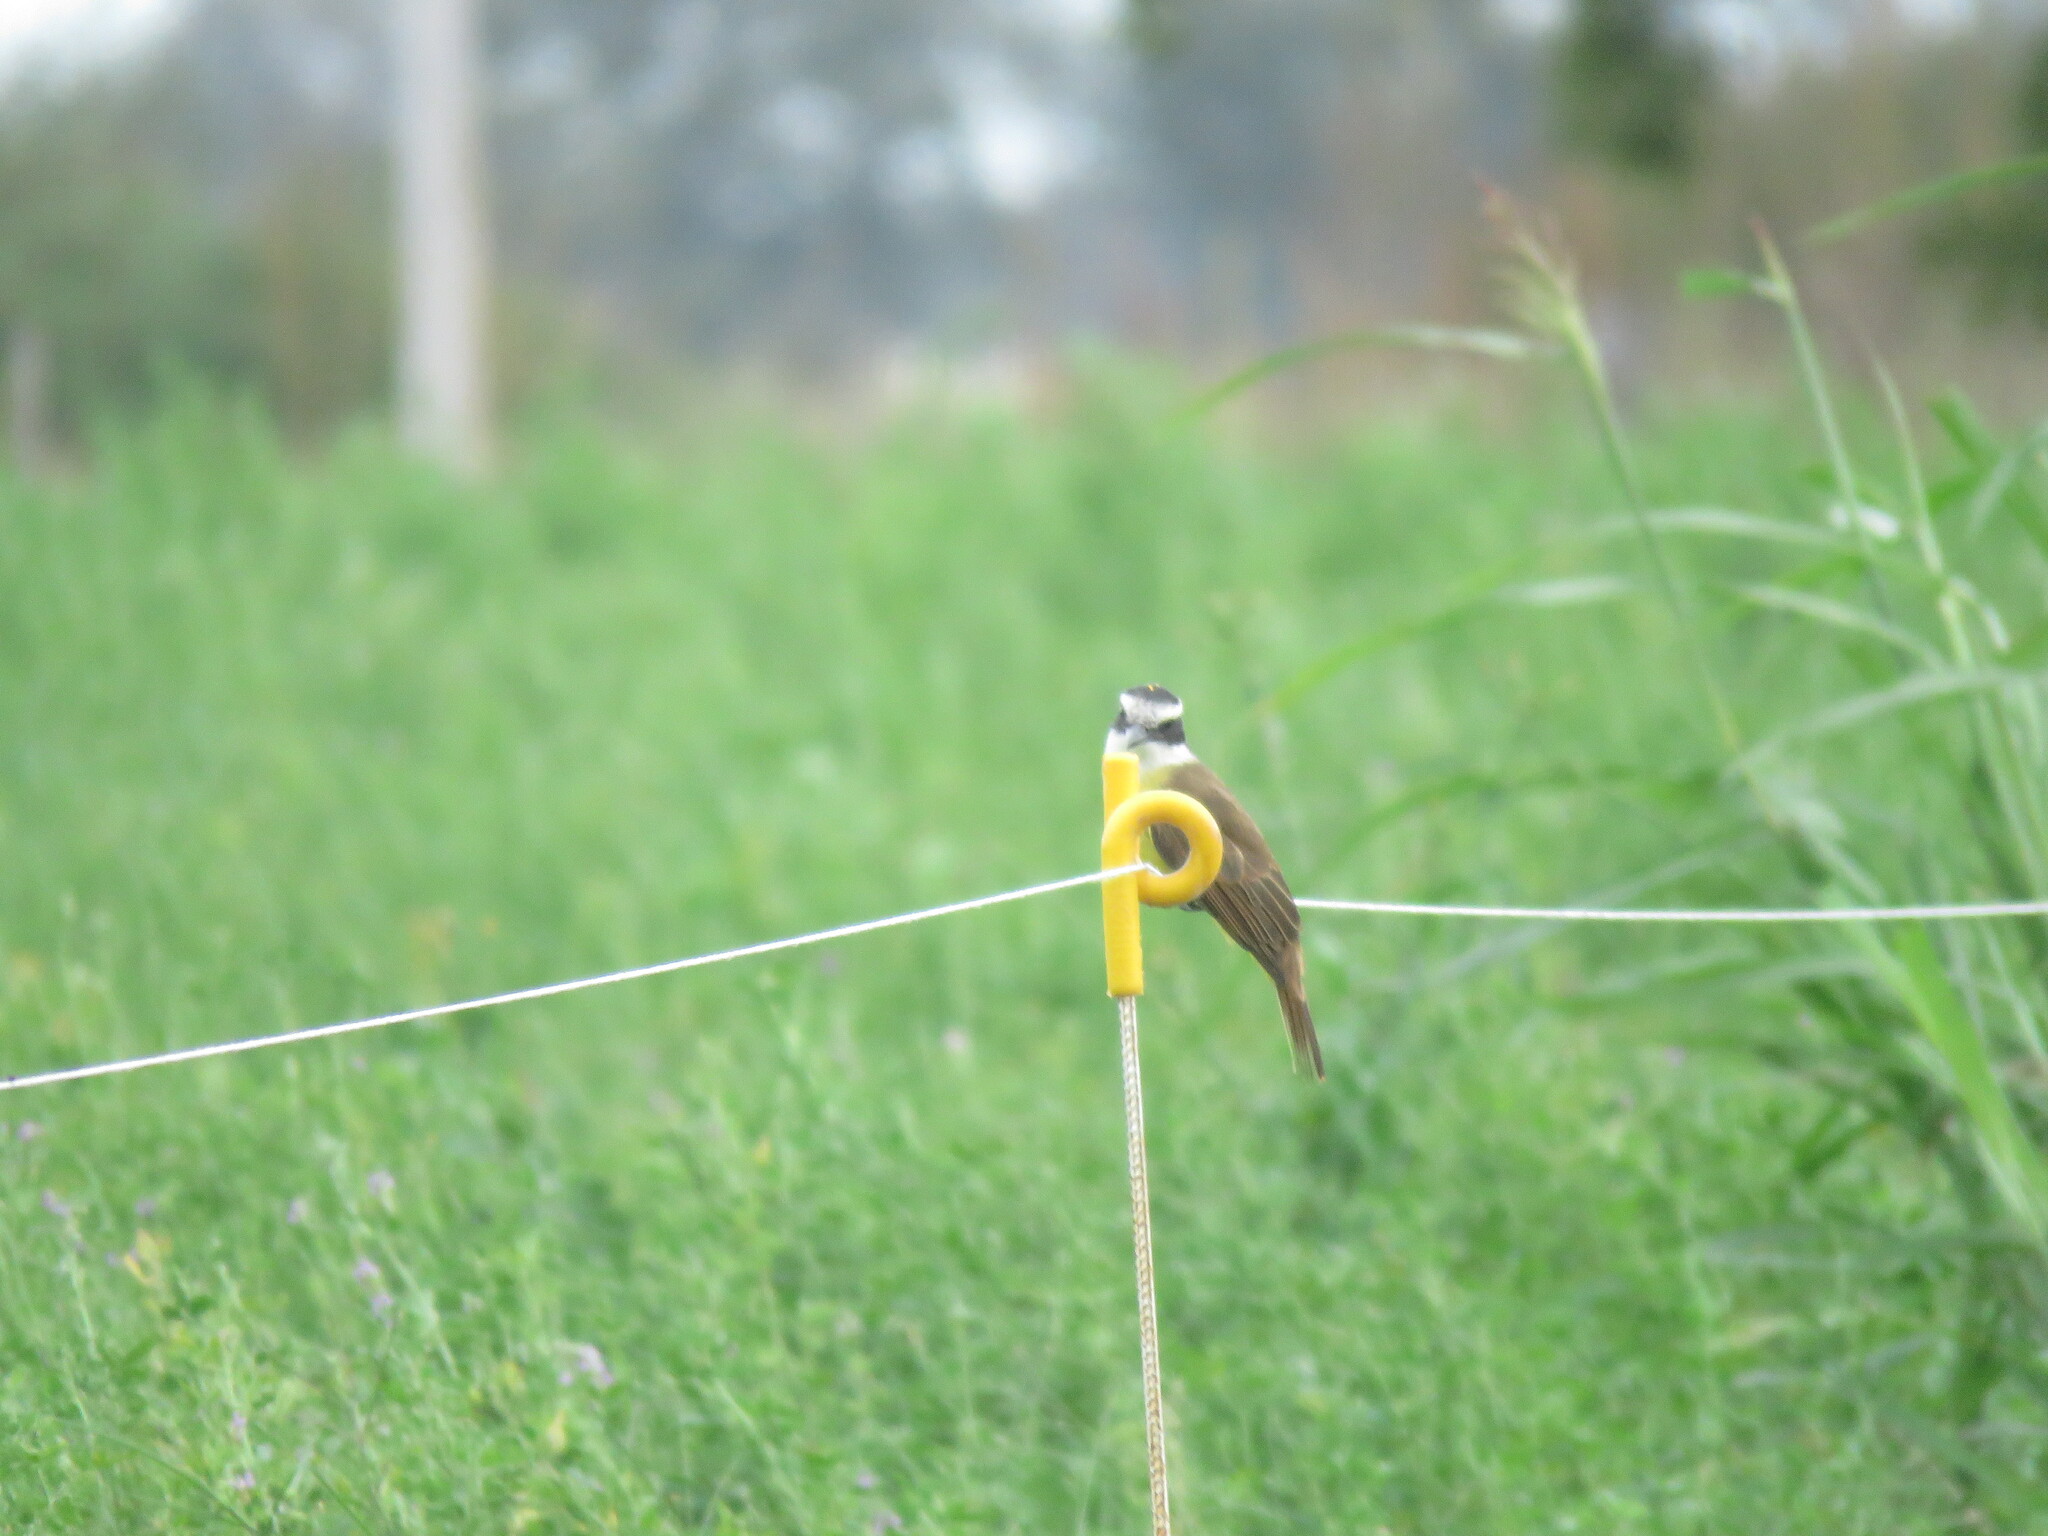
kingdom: Animalia
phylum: Chordata
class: Aves
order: Passeriformes
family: Tyrannidae
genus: Pitangus
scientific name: Pitangus sulphuratus
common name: Great kiskadee
